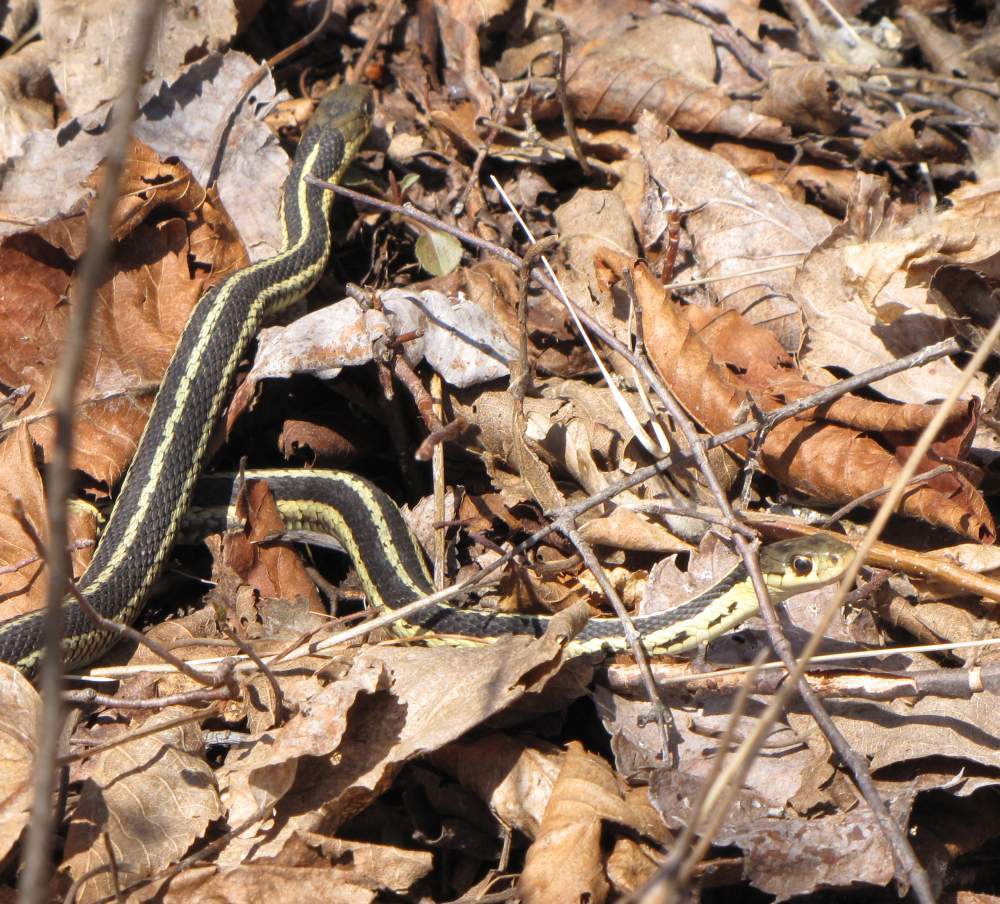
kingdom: Animalia
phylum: Chordata
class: Squamata
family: Colubridae
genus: Thamnophis
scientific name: Thamnophis sirtalis
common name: Common garter snake
